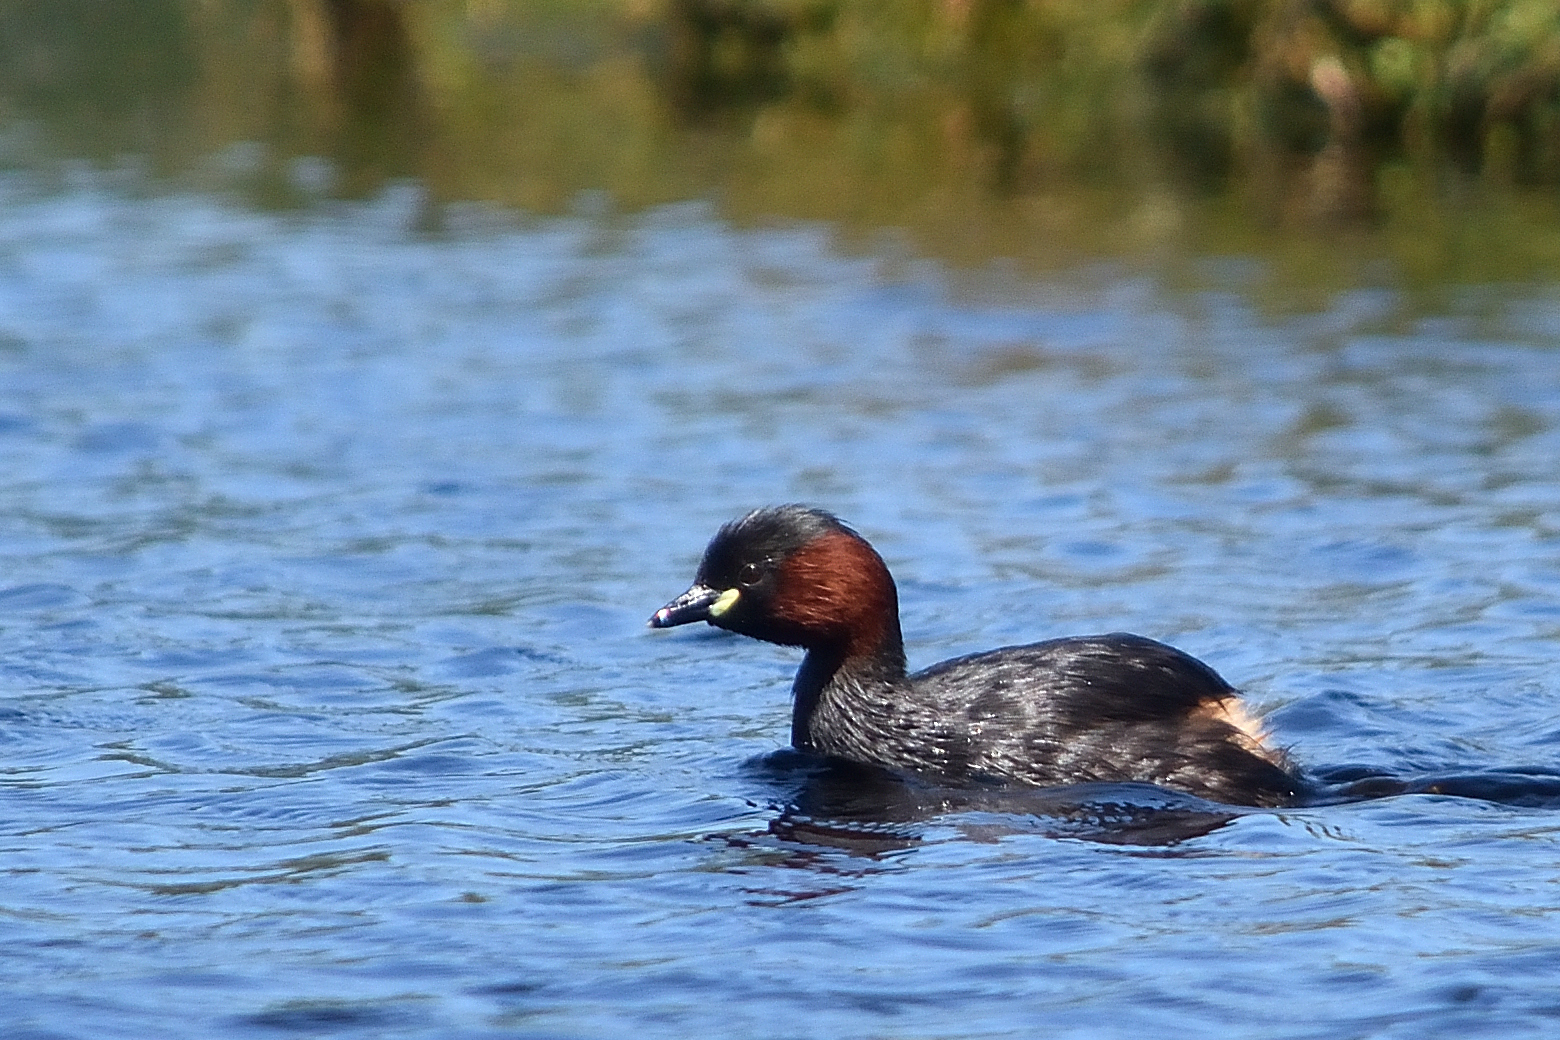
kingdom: Animalia
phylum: Chordata
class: Aves
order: Podicipediformes
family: Podicipedidae
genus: Tachybaptus
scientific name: Tachybaptus ruficollis
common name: Little grebe
